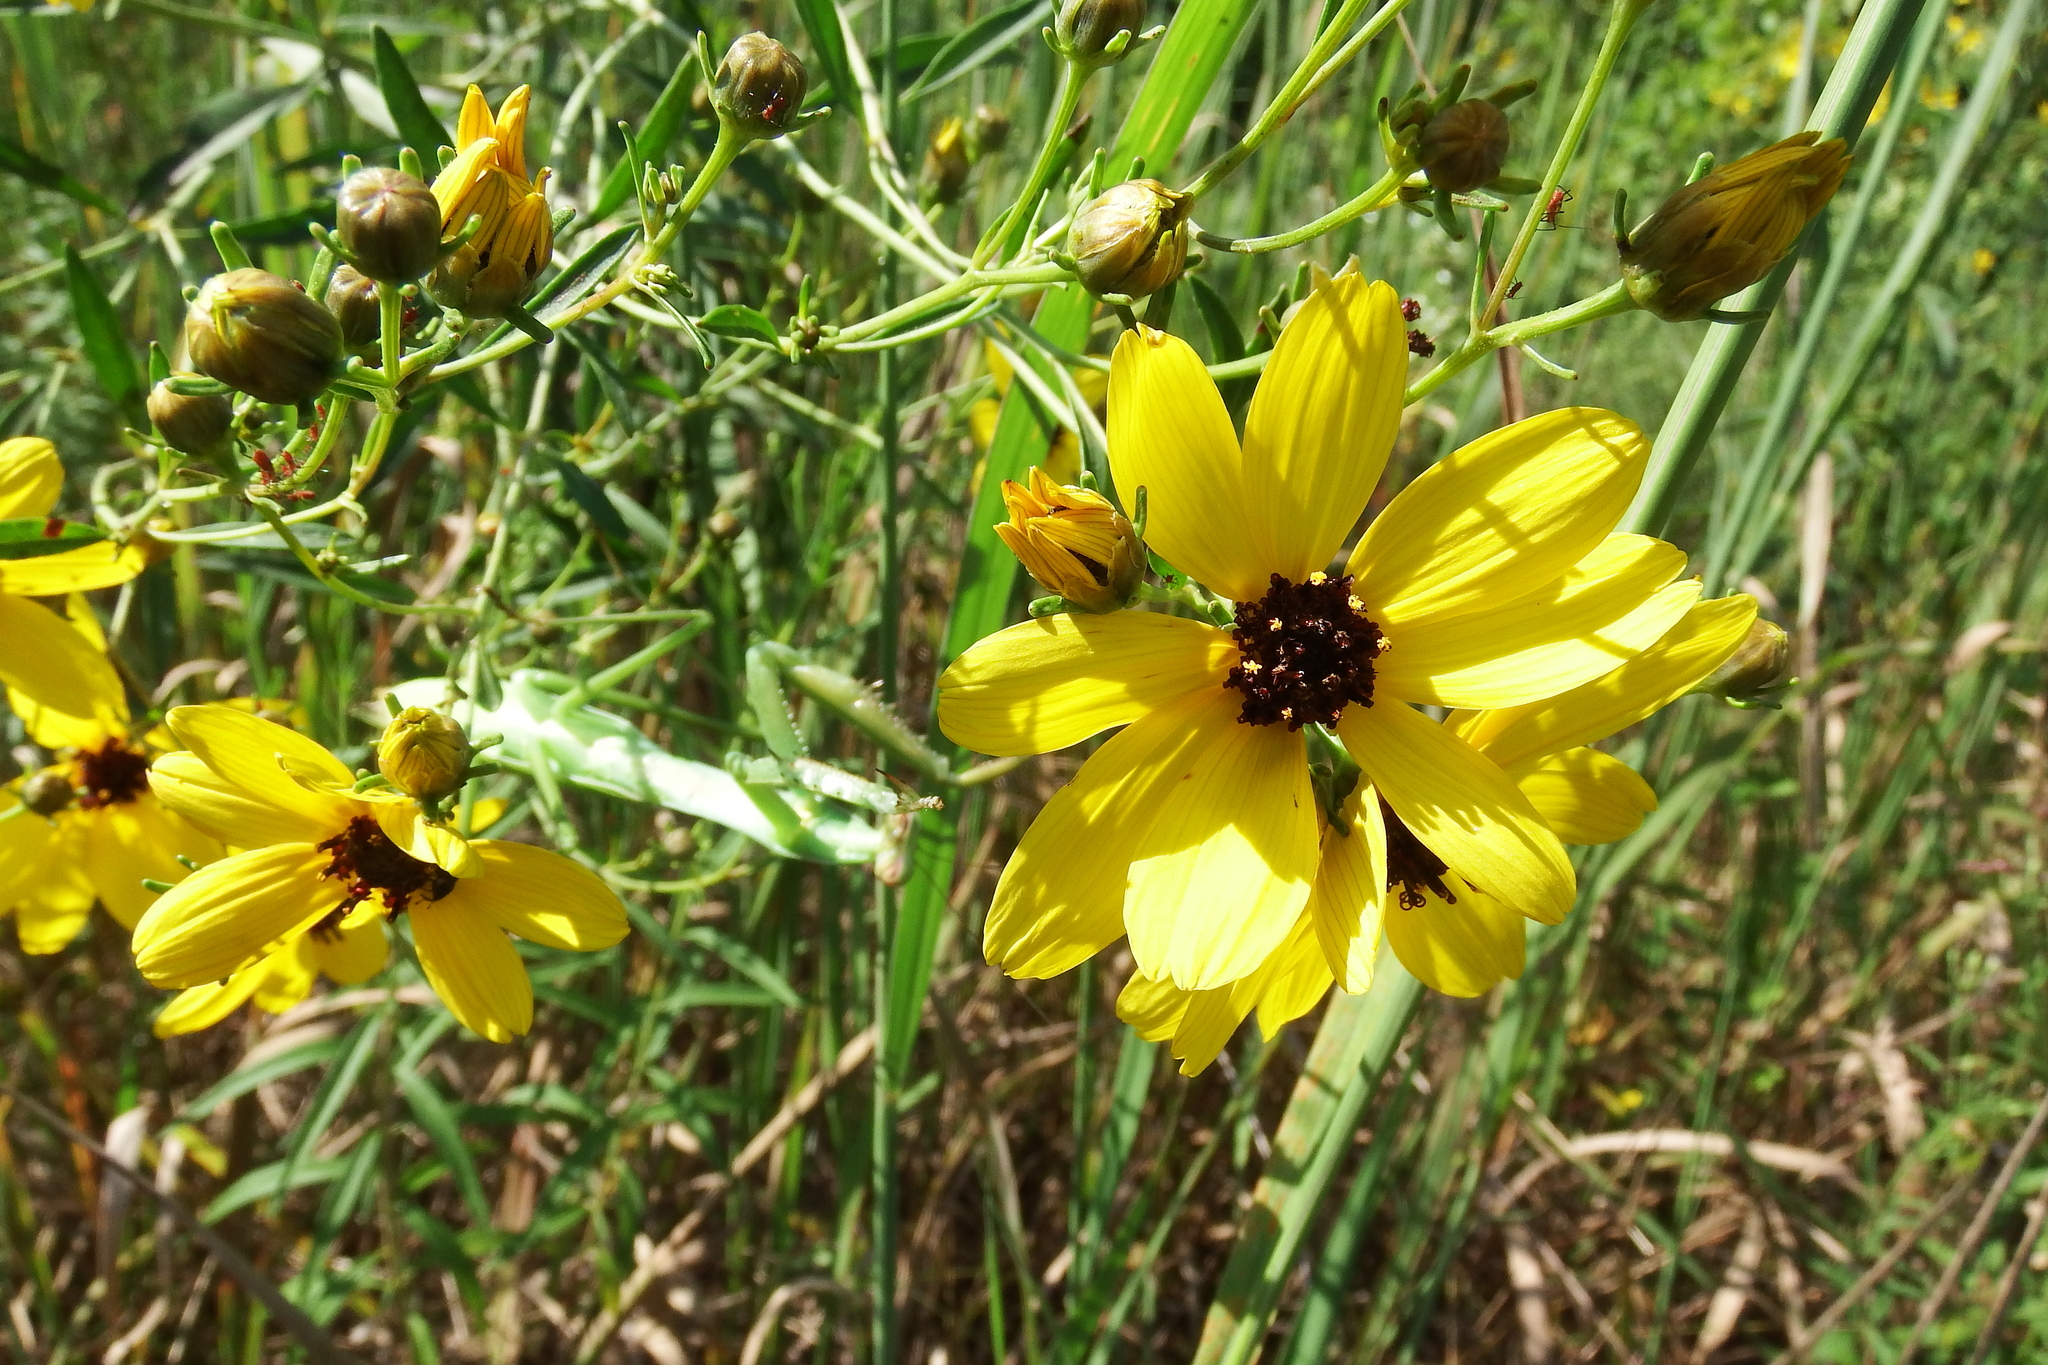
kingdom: Plantae
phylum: Tracheophyta
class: Magnoliopsida
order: Asterales
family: Asteraceae
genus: Coreopsis
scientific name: Coreopsis tripteris
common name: Tall coreopsis
